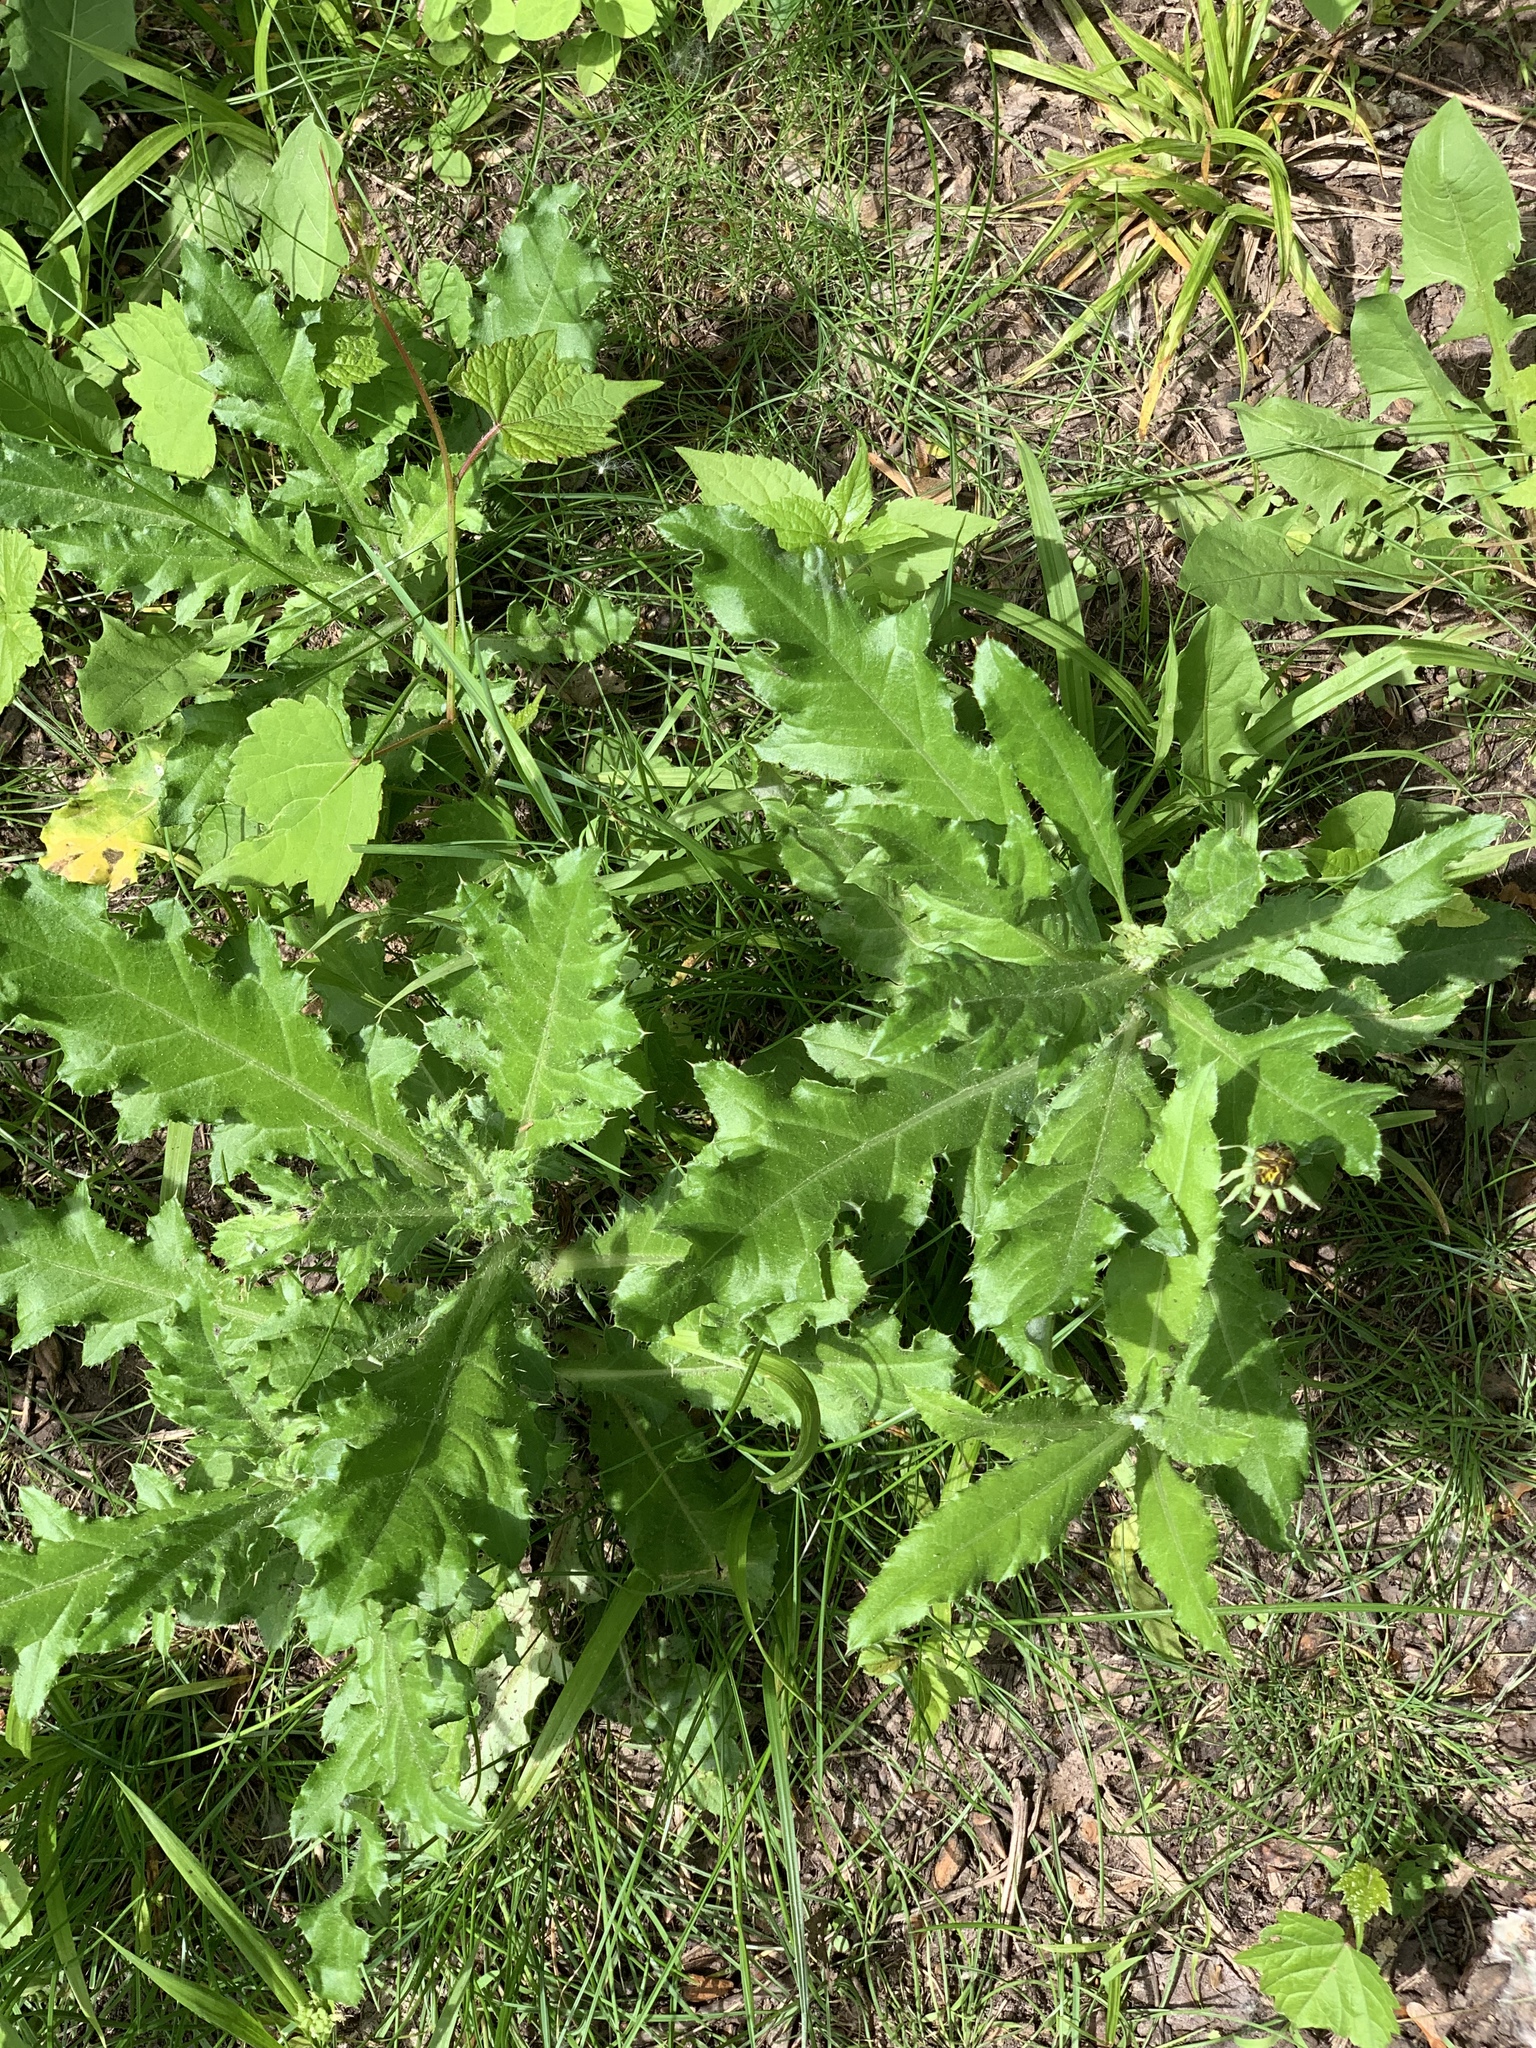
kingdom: Plantae
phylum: Tracheophyta
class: Magnoliopsida
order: Asterales
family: Asteraceae
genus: Cirsium
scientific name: Cirsium arvense
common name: Creeping thistle
